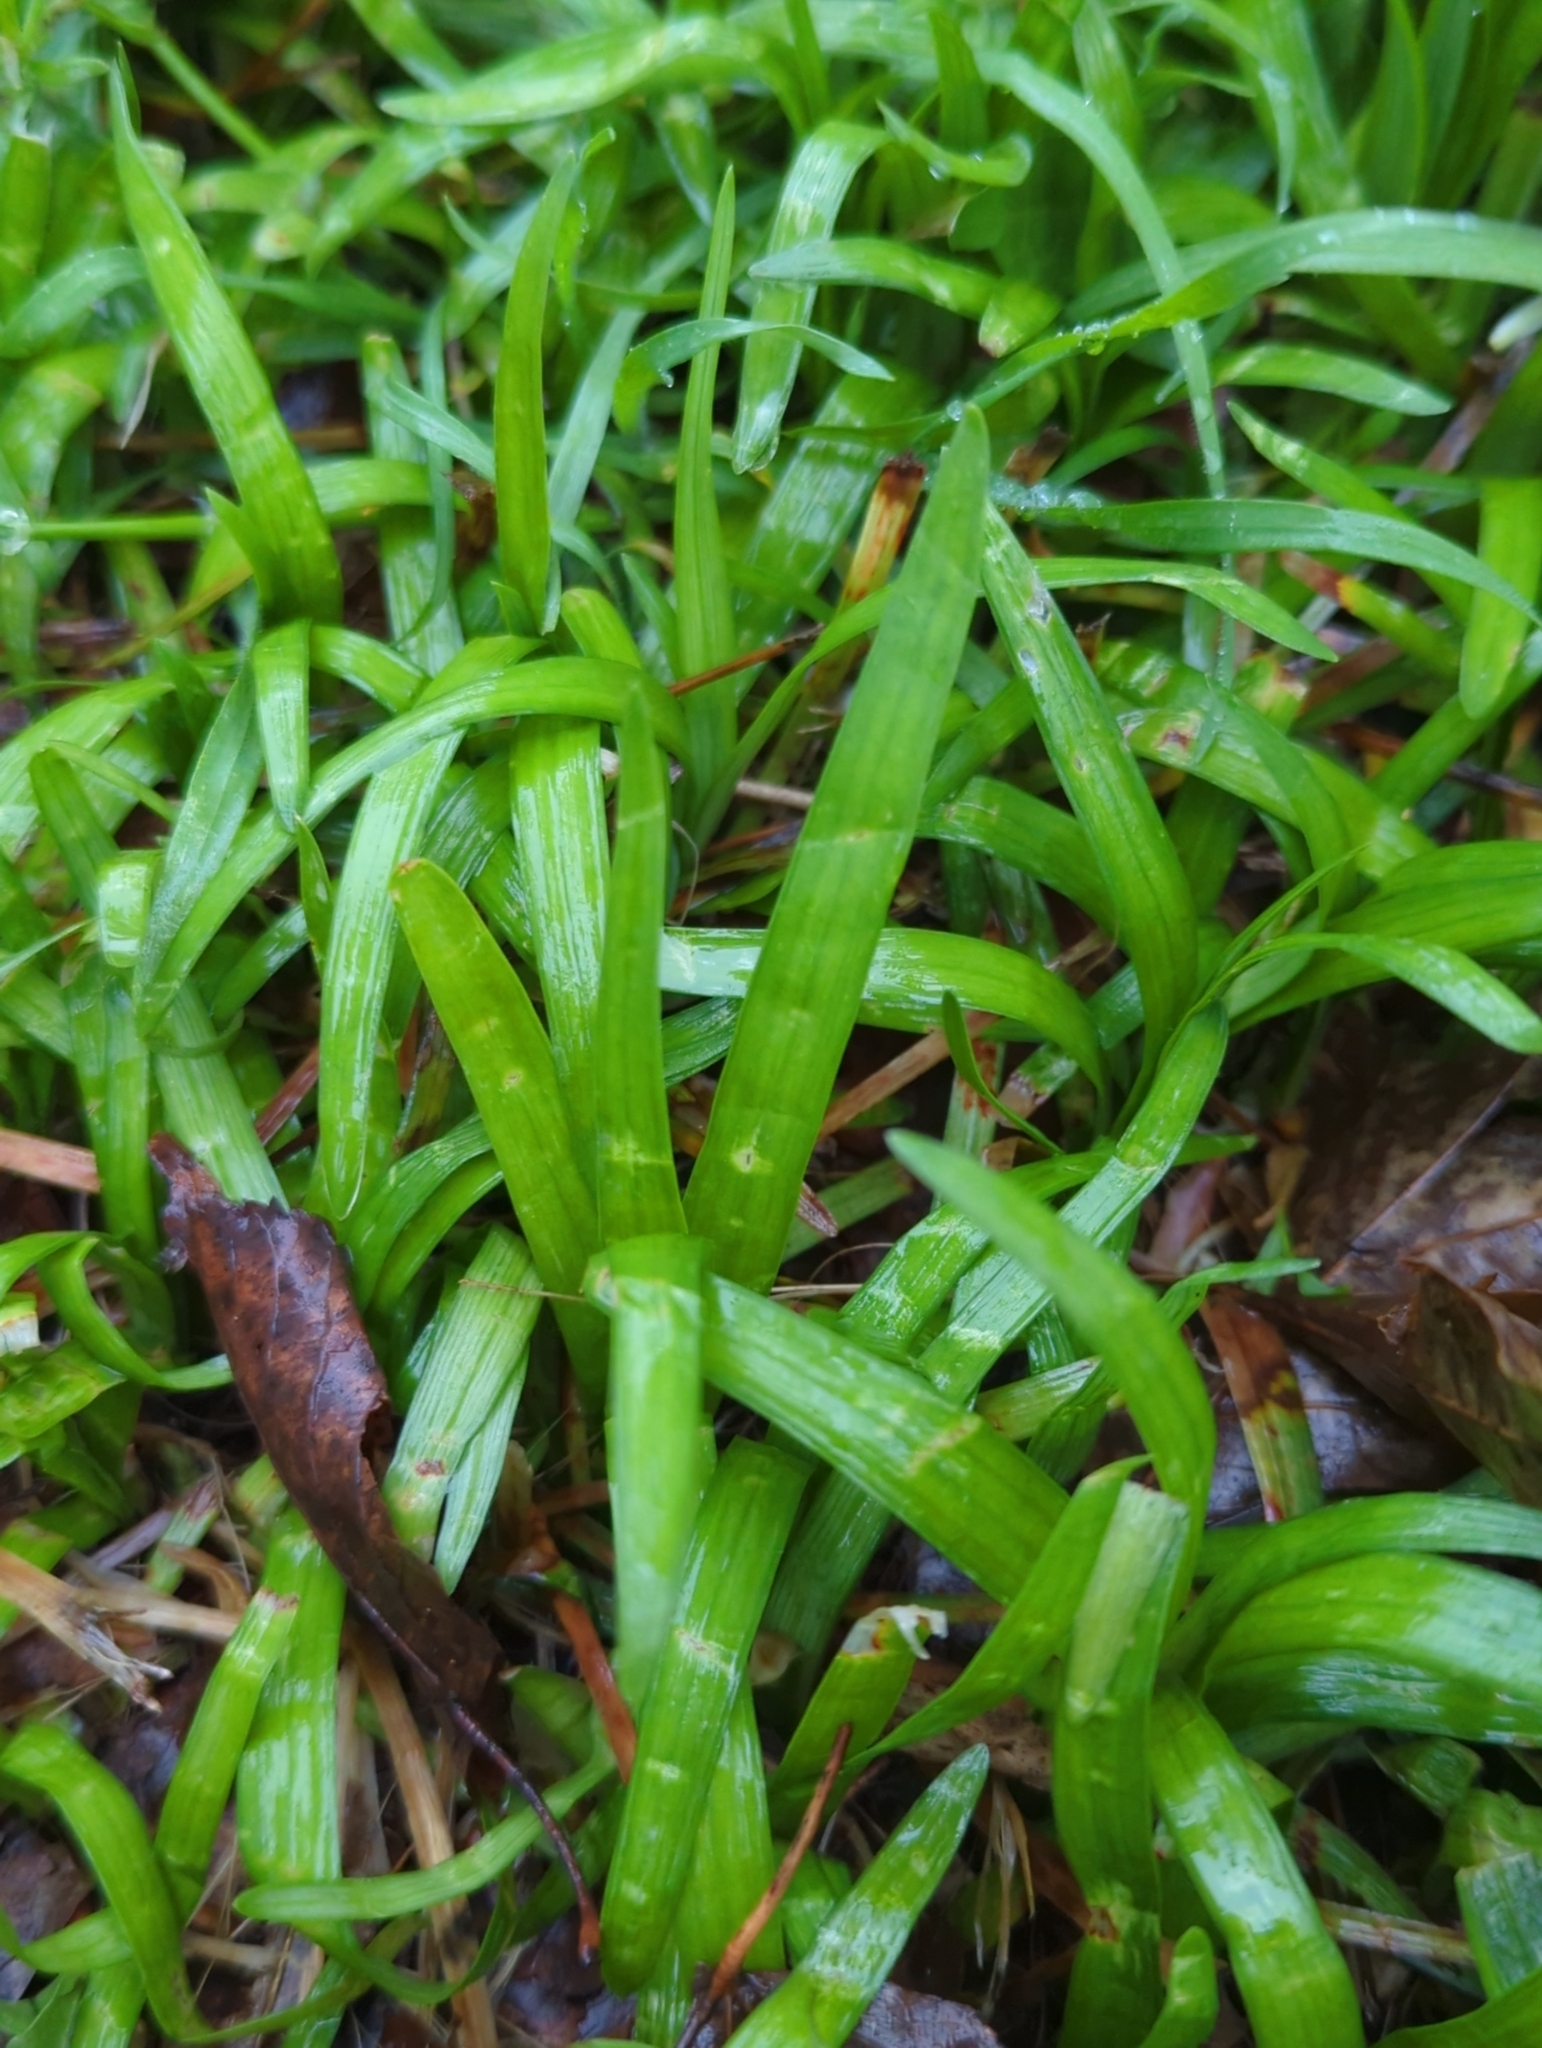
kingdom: Plantae
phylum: Tracheophyta
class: Liliopsida
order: Asparagales
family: Asparagaceae
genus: Liriope
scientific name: Liriope muscari
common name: Big blue lilyturf
